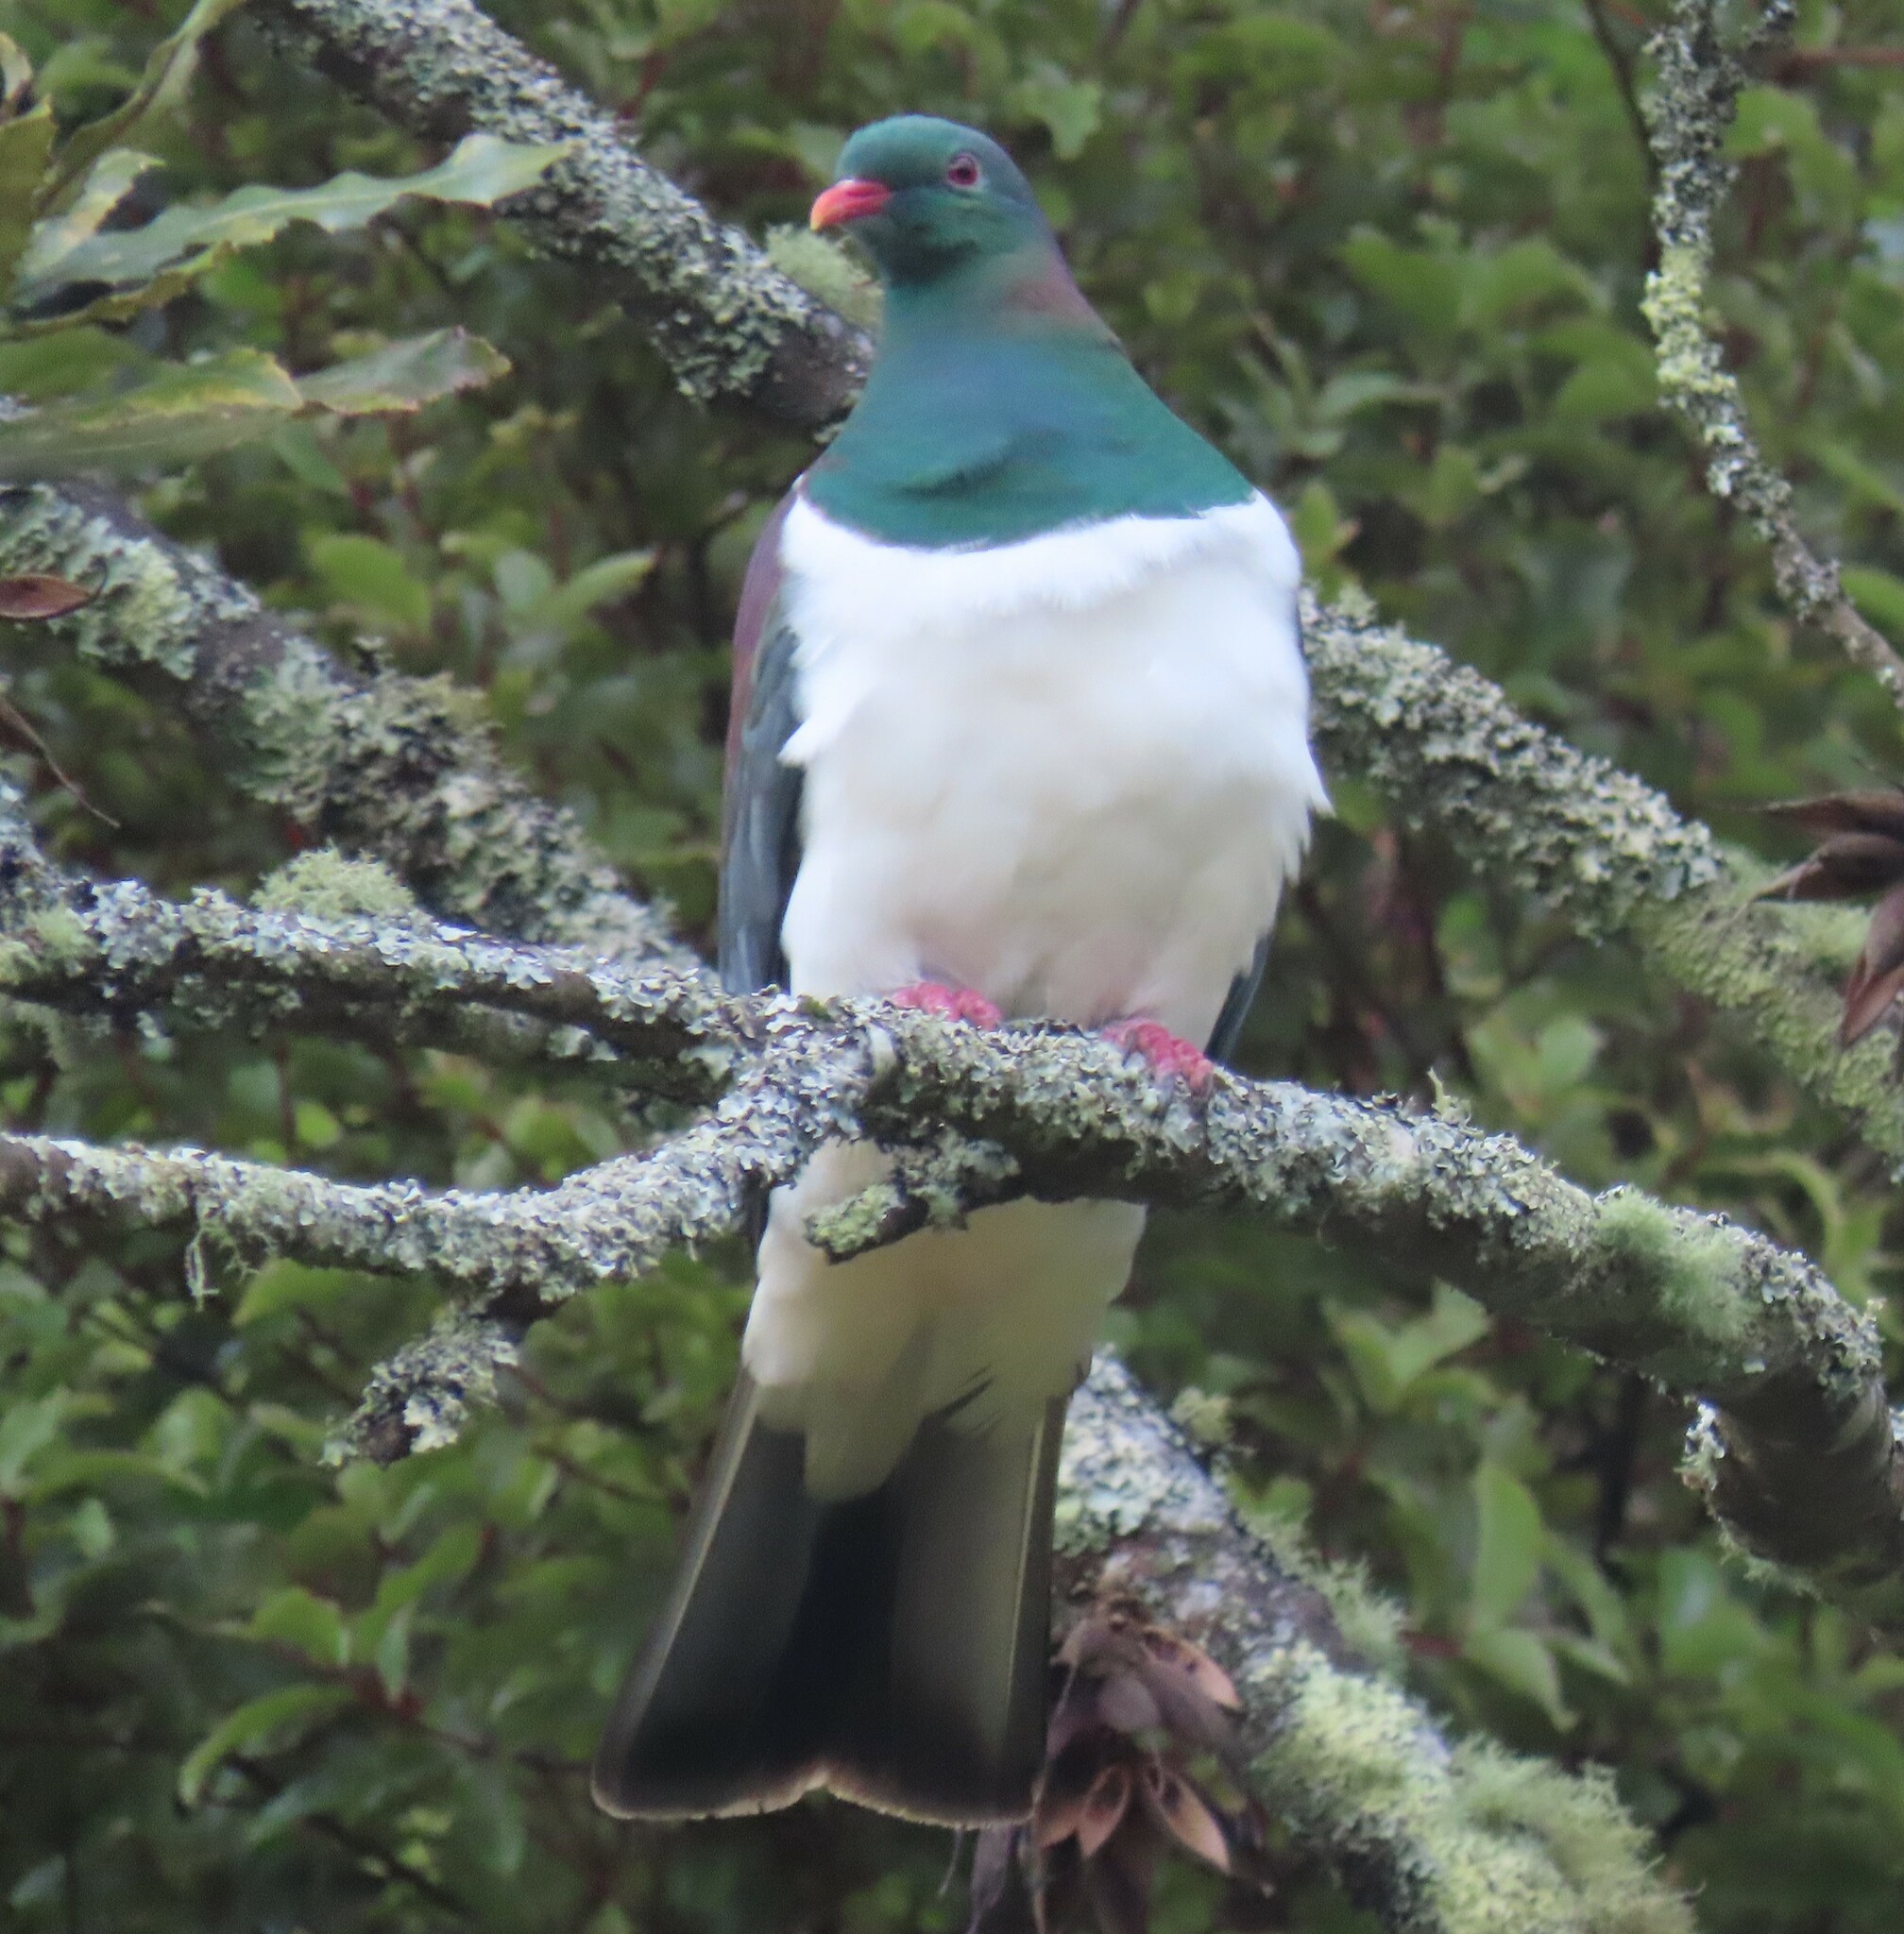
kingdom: Animalia
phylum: Chordata
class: Aves
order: Columbiformes
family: Columbidae
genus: Hemiphaga
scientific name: Hemiphaga novaeseelandiae
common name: New zealand pigeon
